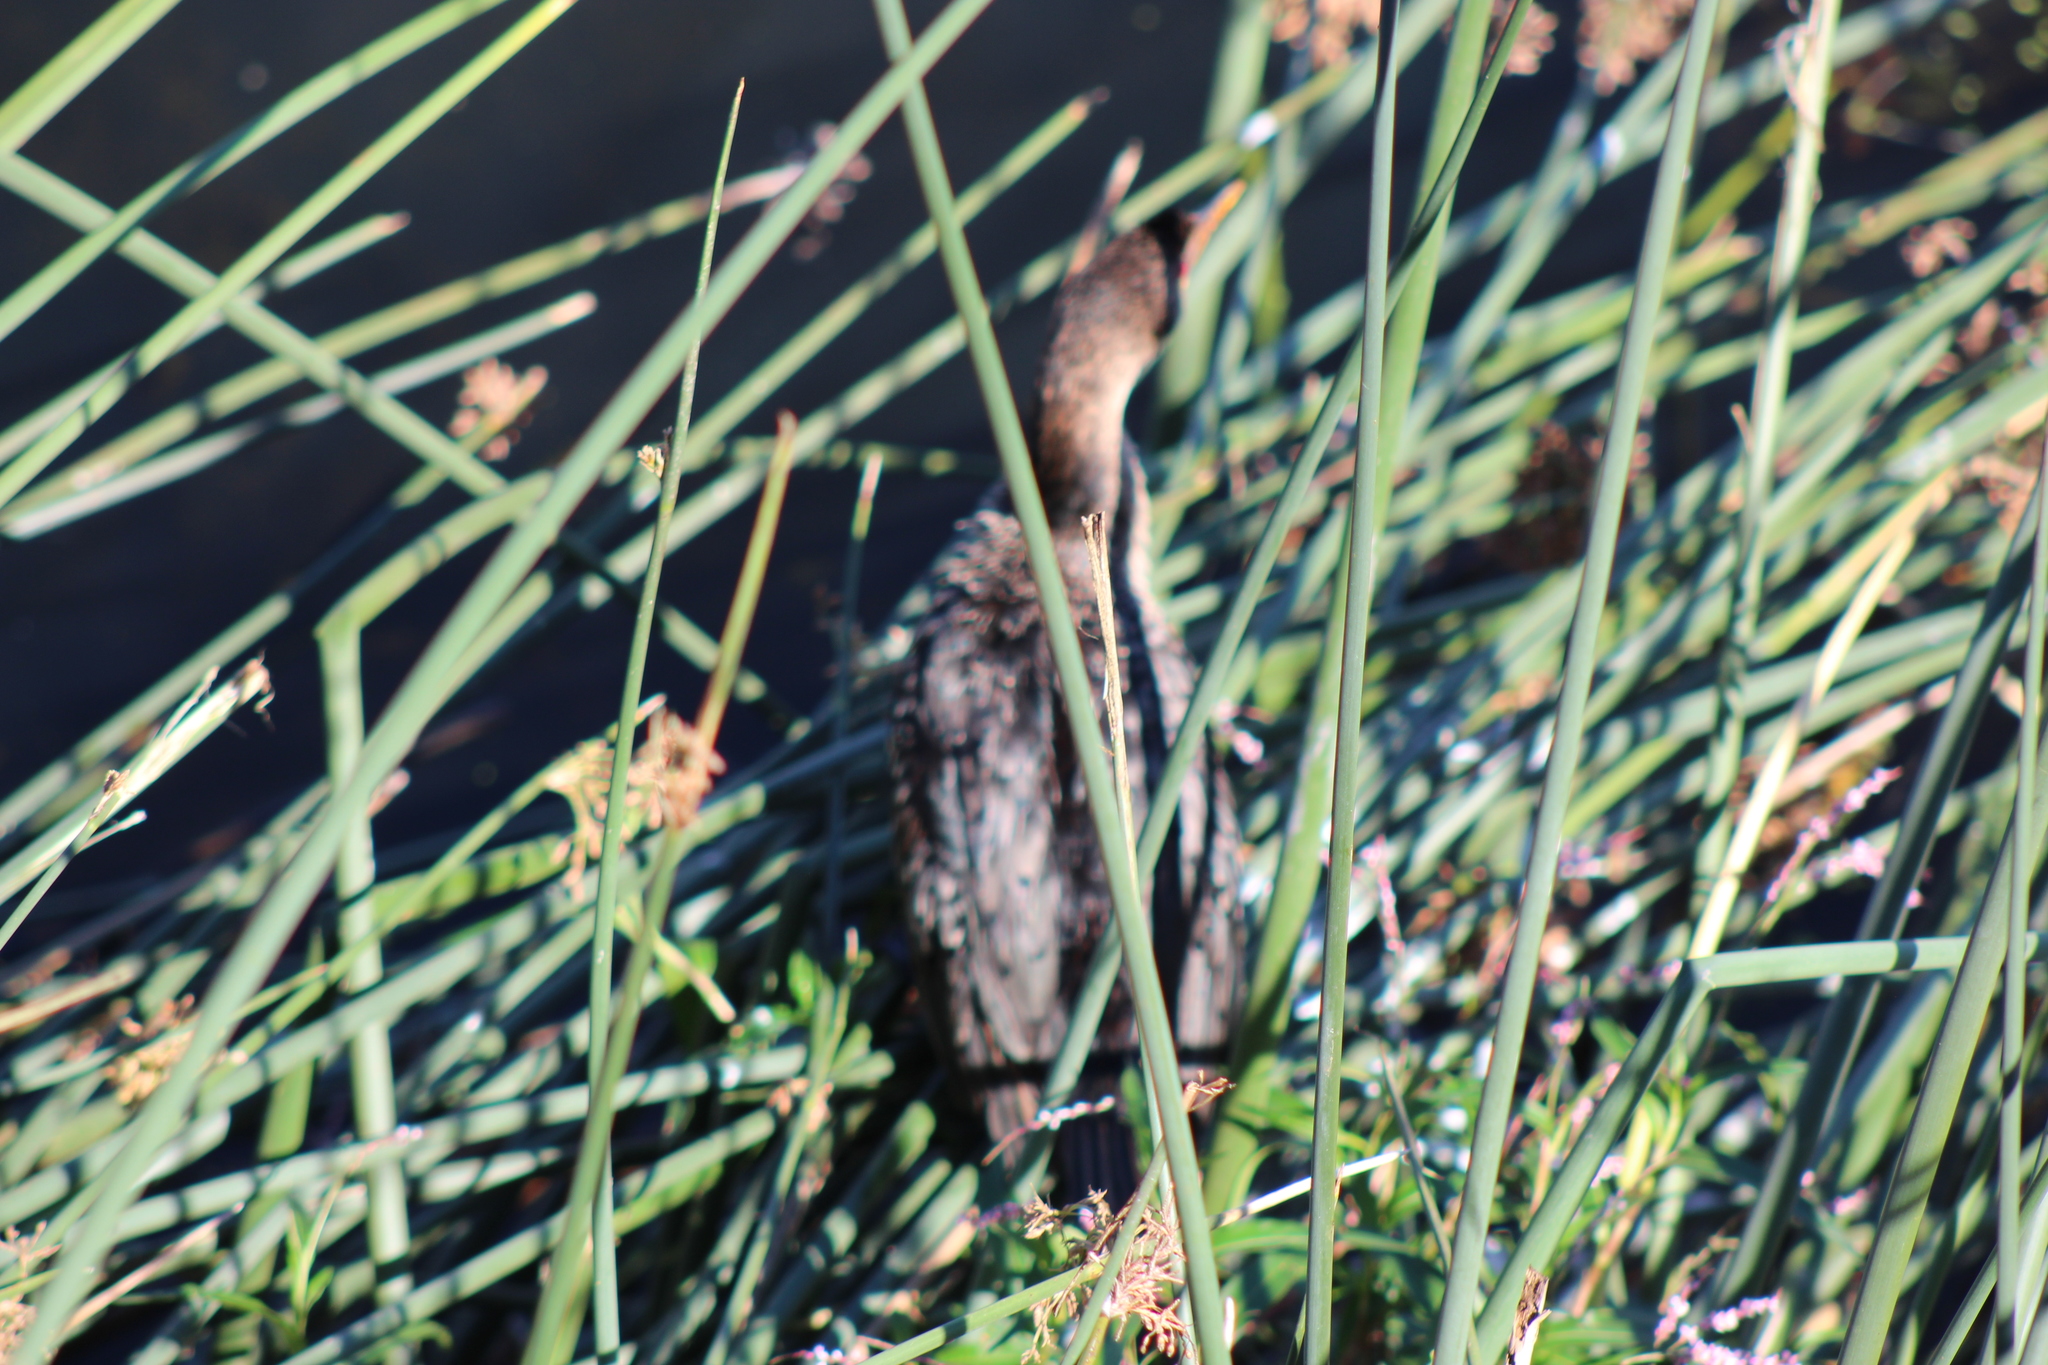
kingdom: Animalia
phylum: Chordata
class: Aves
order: Suliformes
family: Phalacrocoracidae
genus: Microcarbo
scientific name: Microcarbo africanus
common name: Long-tailed cormorant
